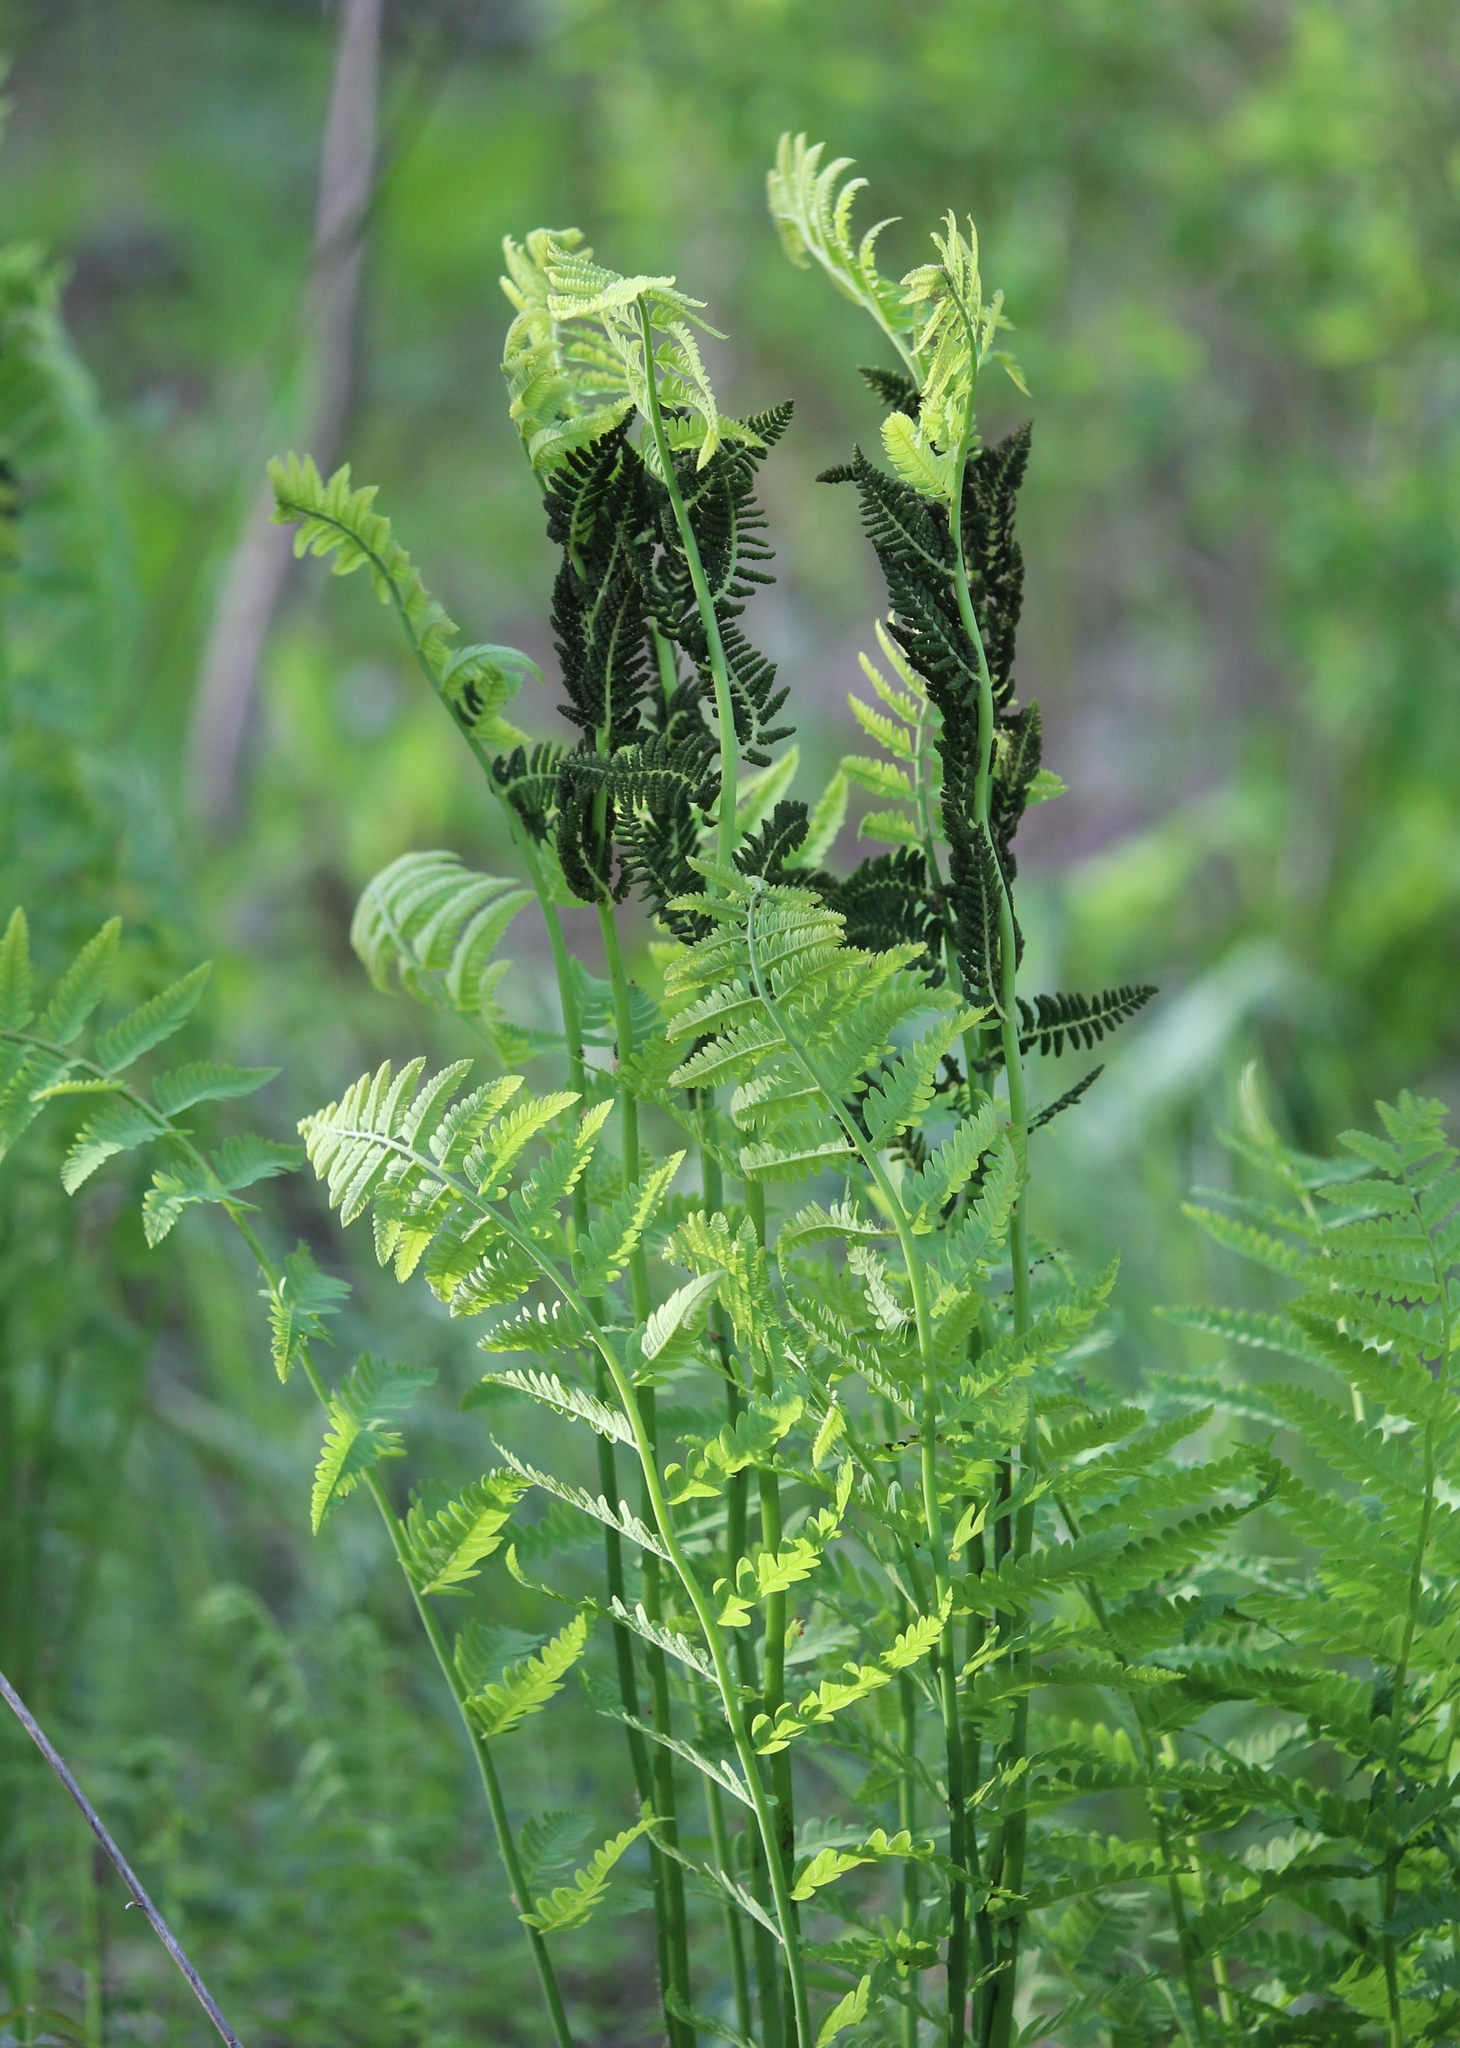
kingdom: Plantae
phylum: Tracheophyta
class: Polypodiopsida
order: Osmundales
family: Osmundaceae
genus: Claytosmunda
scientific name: Claytosmunda claytoniana
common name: Clayton's fern
